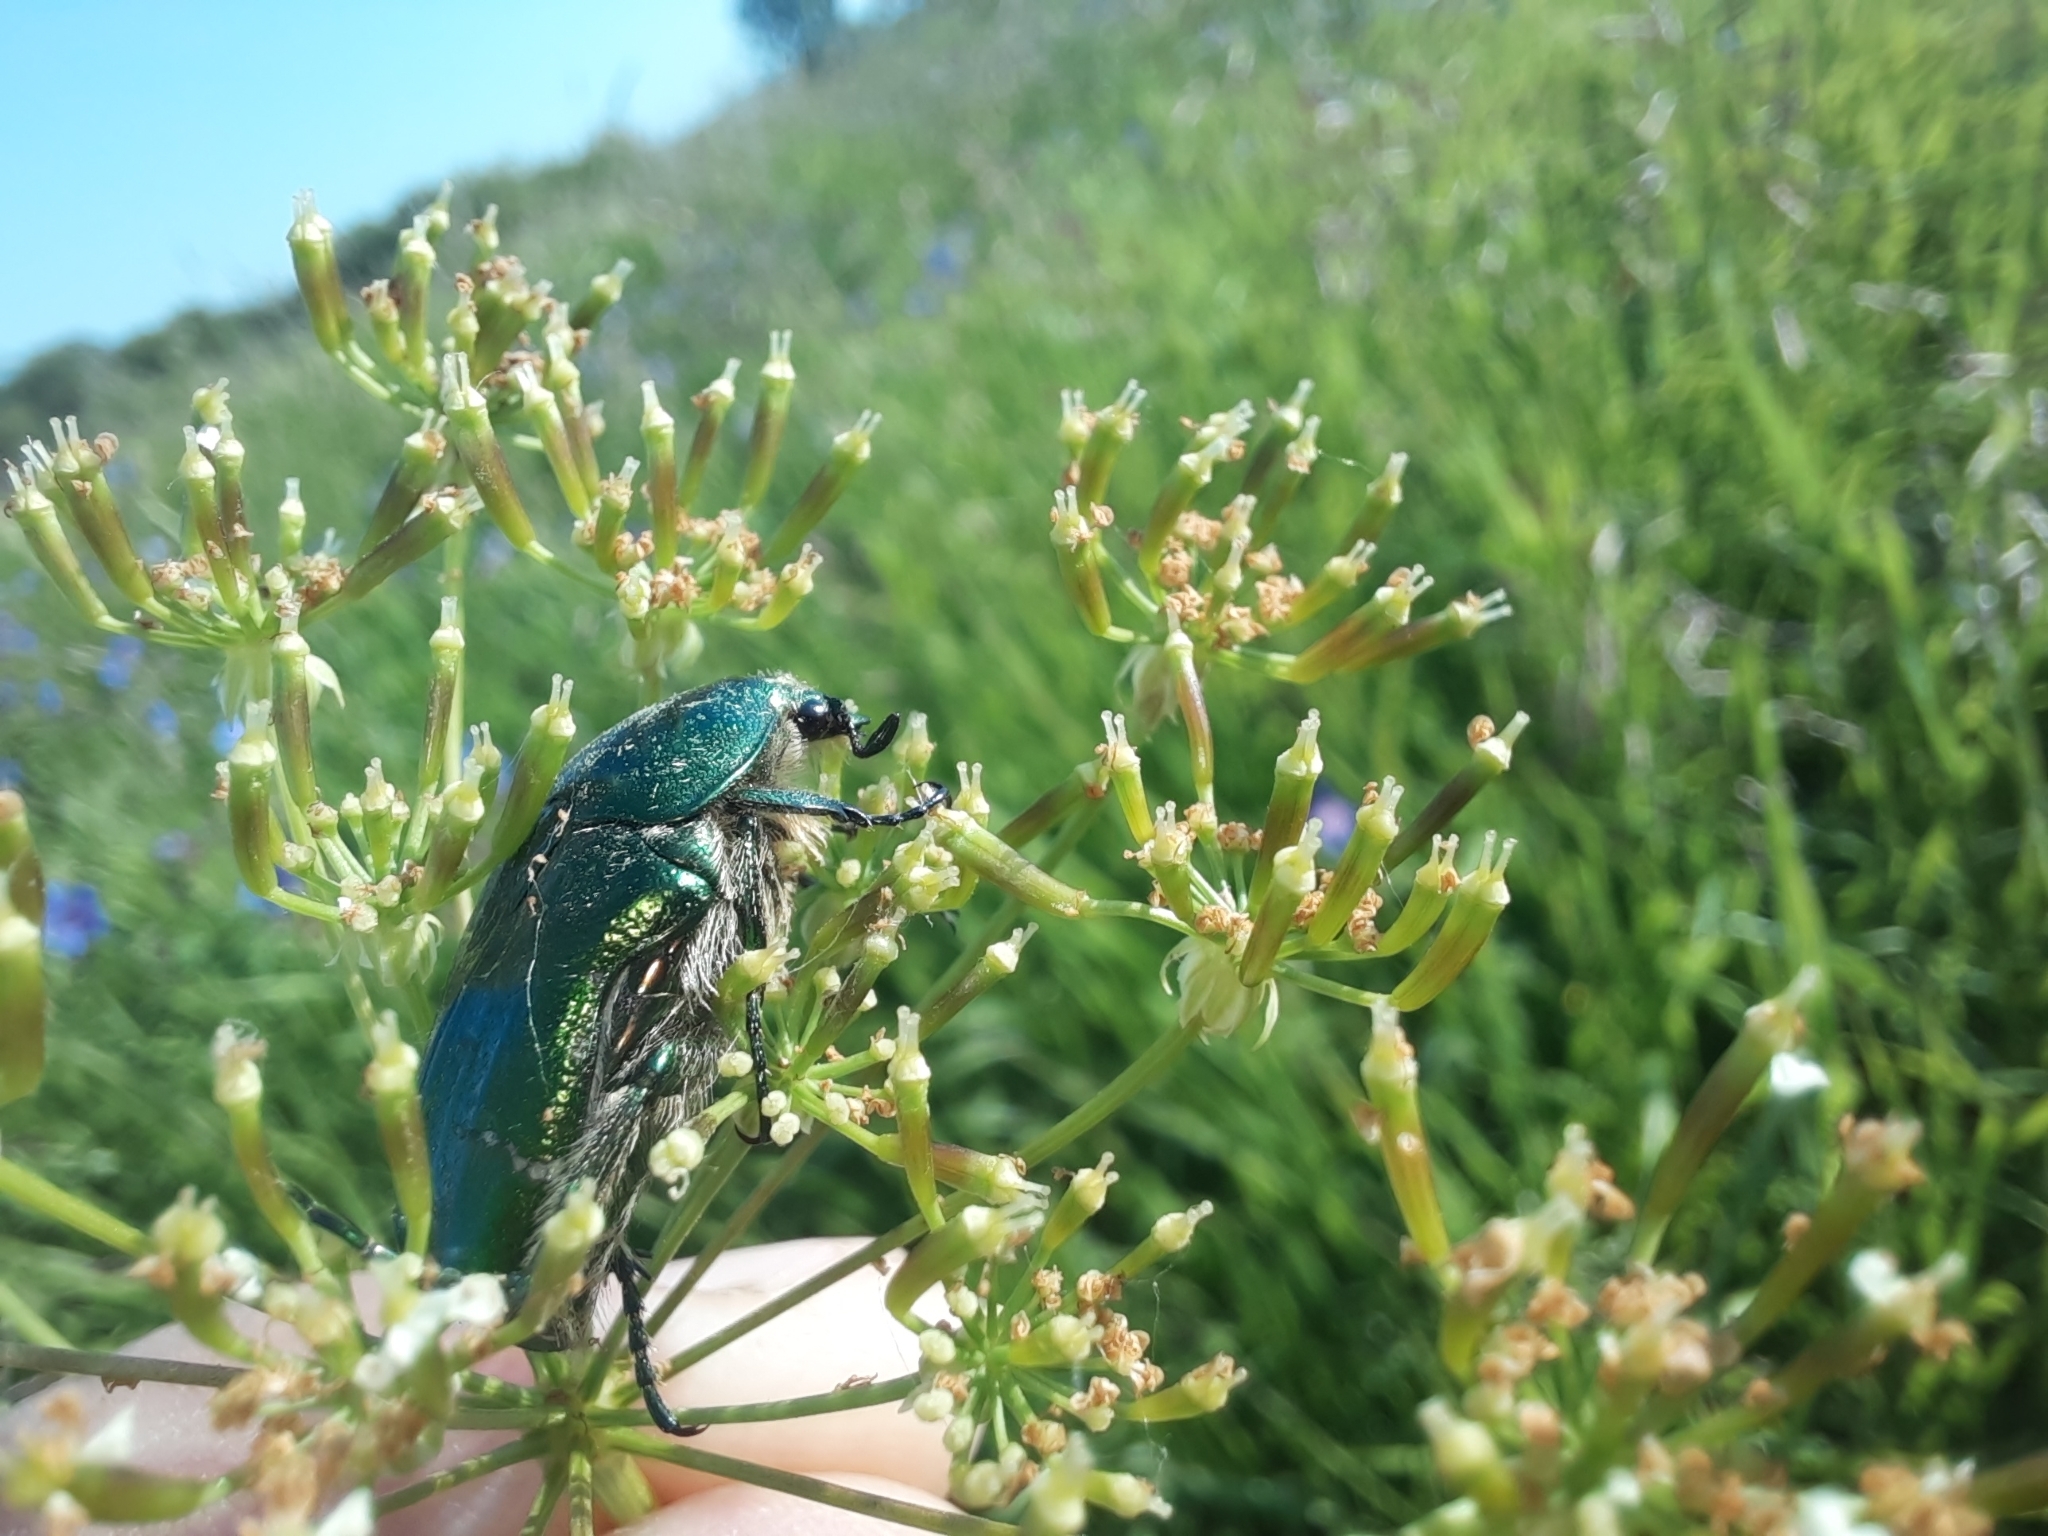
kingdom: Animalia
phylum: Arthropoda
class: Insecta
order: Coleoptera
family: Scarabaeidae
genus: Cetonia
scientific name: Cetonia aurata
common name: Rose chafer
